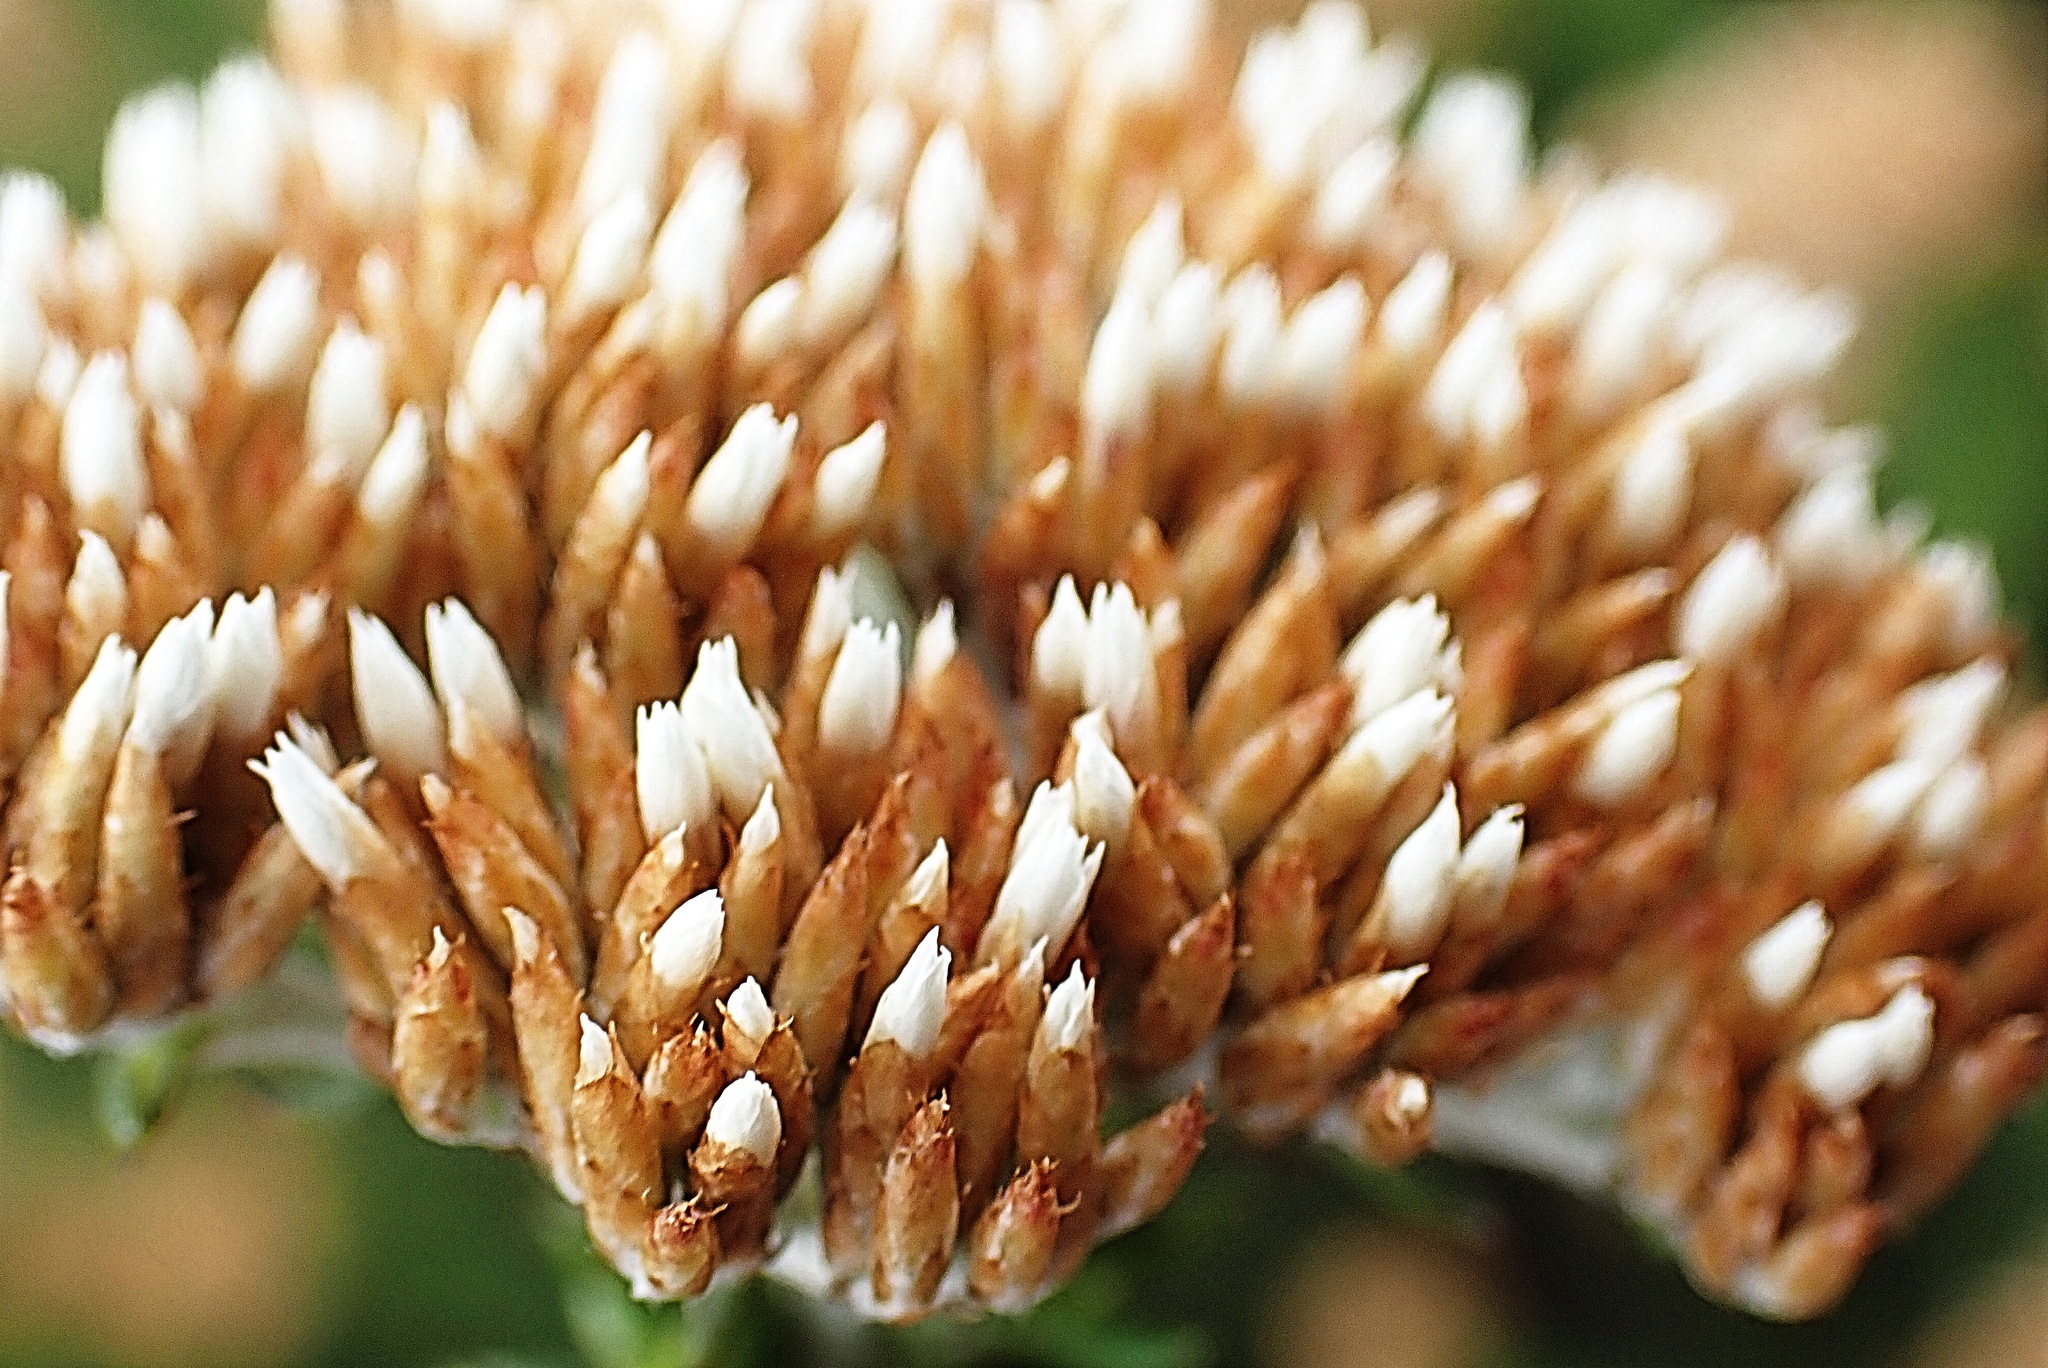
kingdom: Plantae
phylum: Tracheophyta
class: Magnoliopsida
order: Asterales
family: Asteraceae
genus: Metalasia
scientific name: Metalasia muricata
